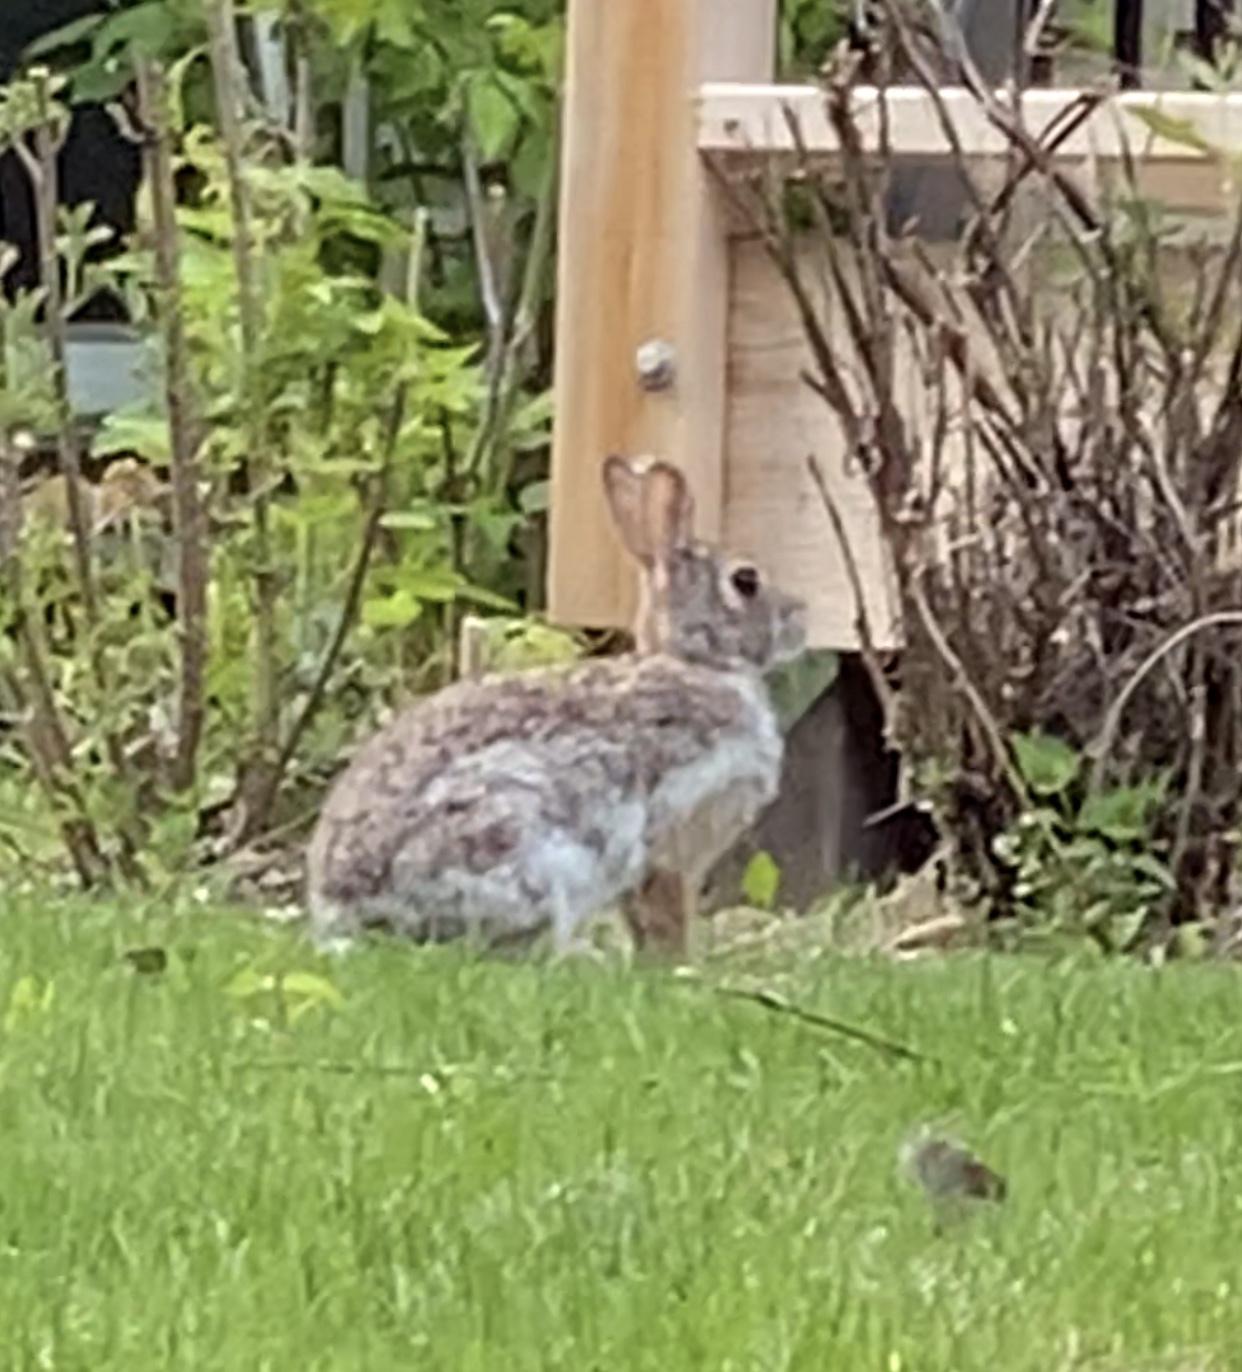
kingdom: Animalia
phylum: Chordata
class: Mammalia
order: Lagomorpha
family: Leporidae
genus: Sylvilagus
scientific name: Sylvilagus floridanus
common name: Eastern cottontail
